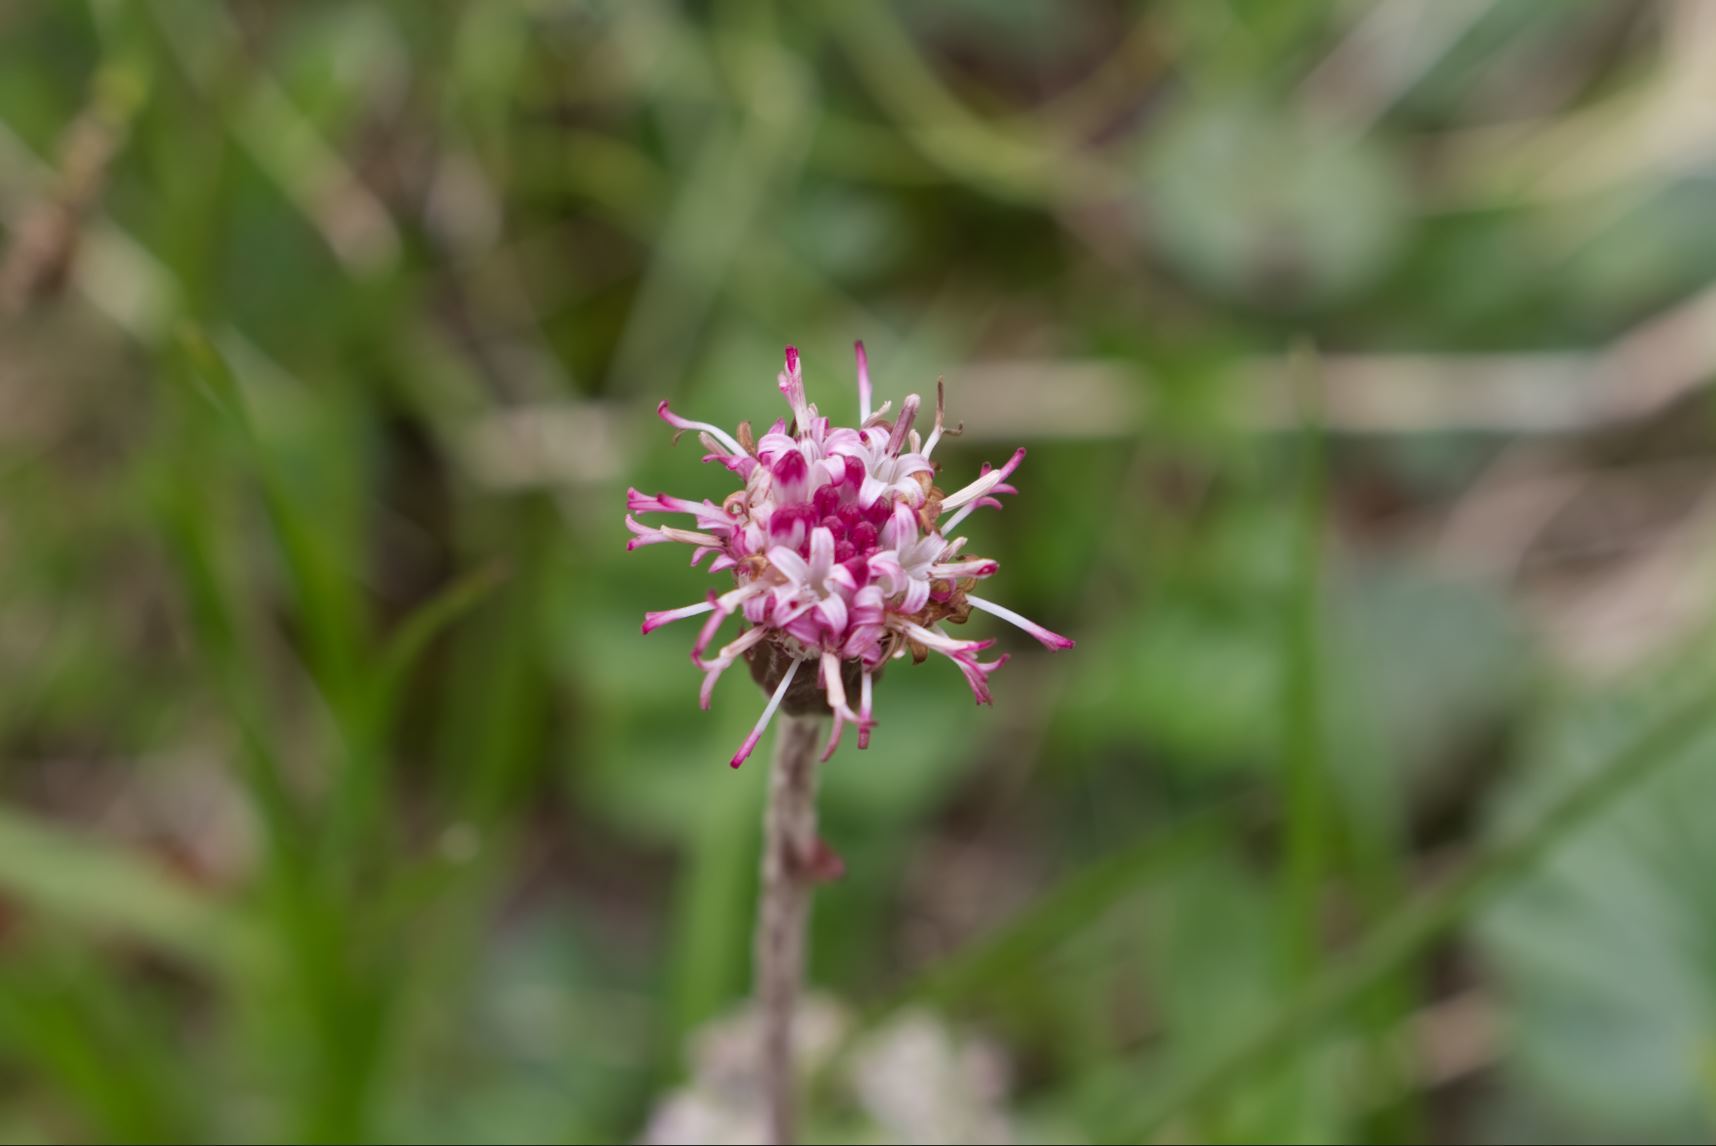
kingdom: Plantae
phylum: Tracheophyta
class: Magnoliopsida
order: Asterales
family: Asteraceae
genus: Homogyne
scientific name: Homogyne alpina
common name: Purple colt's-foot
